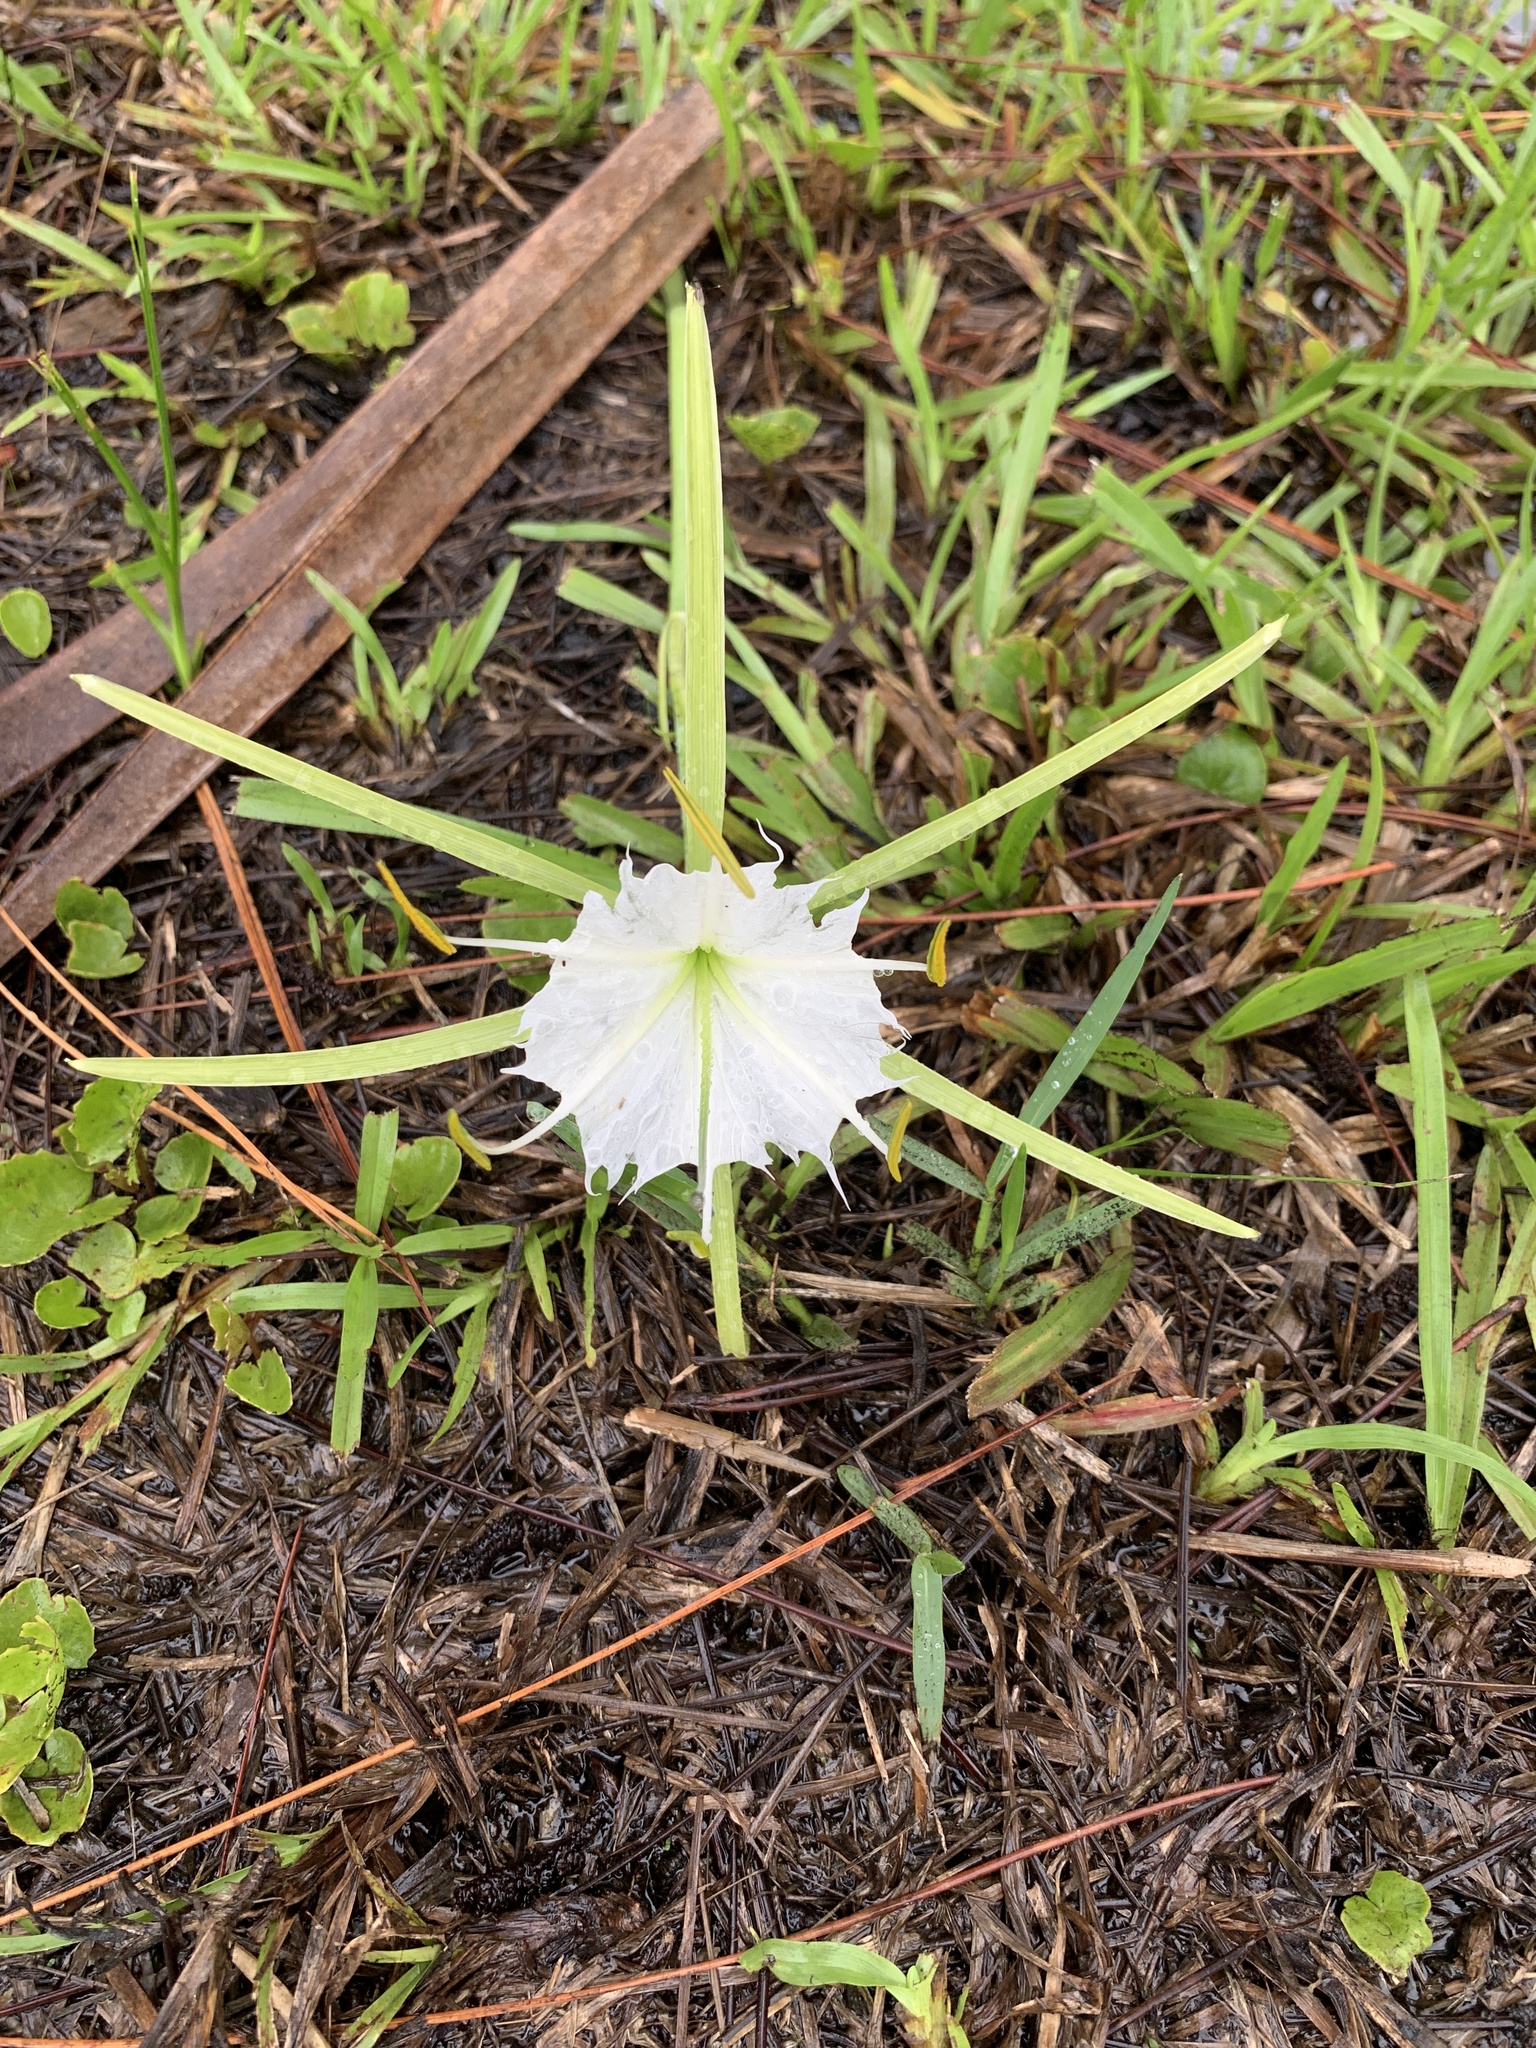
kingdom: Plantae
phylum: Tracheophyta
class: Liliopsida
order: Asparagales
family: Amaryllidaceae
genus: Hymenocallis
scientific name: Hymenocallis palmeri
